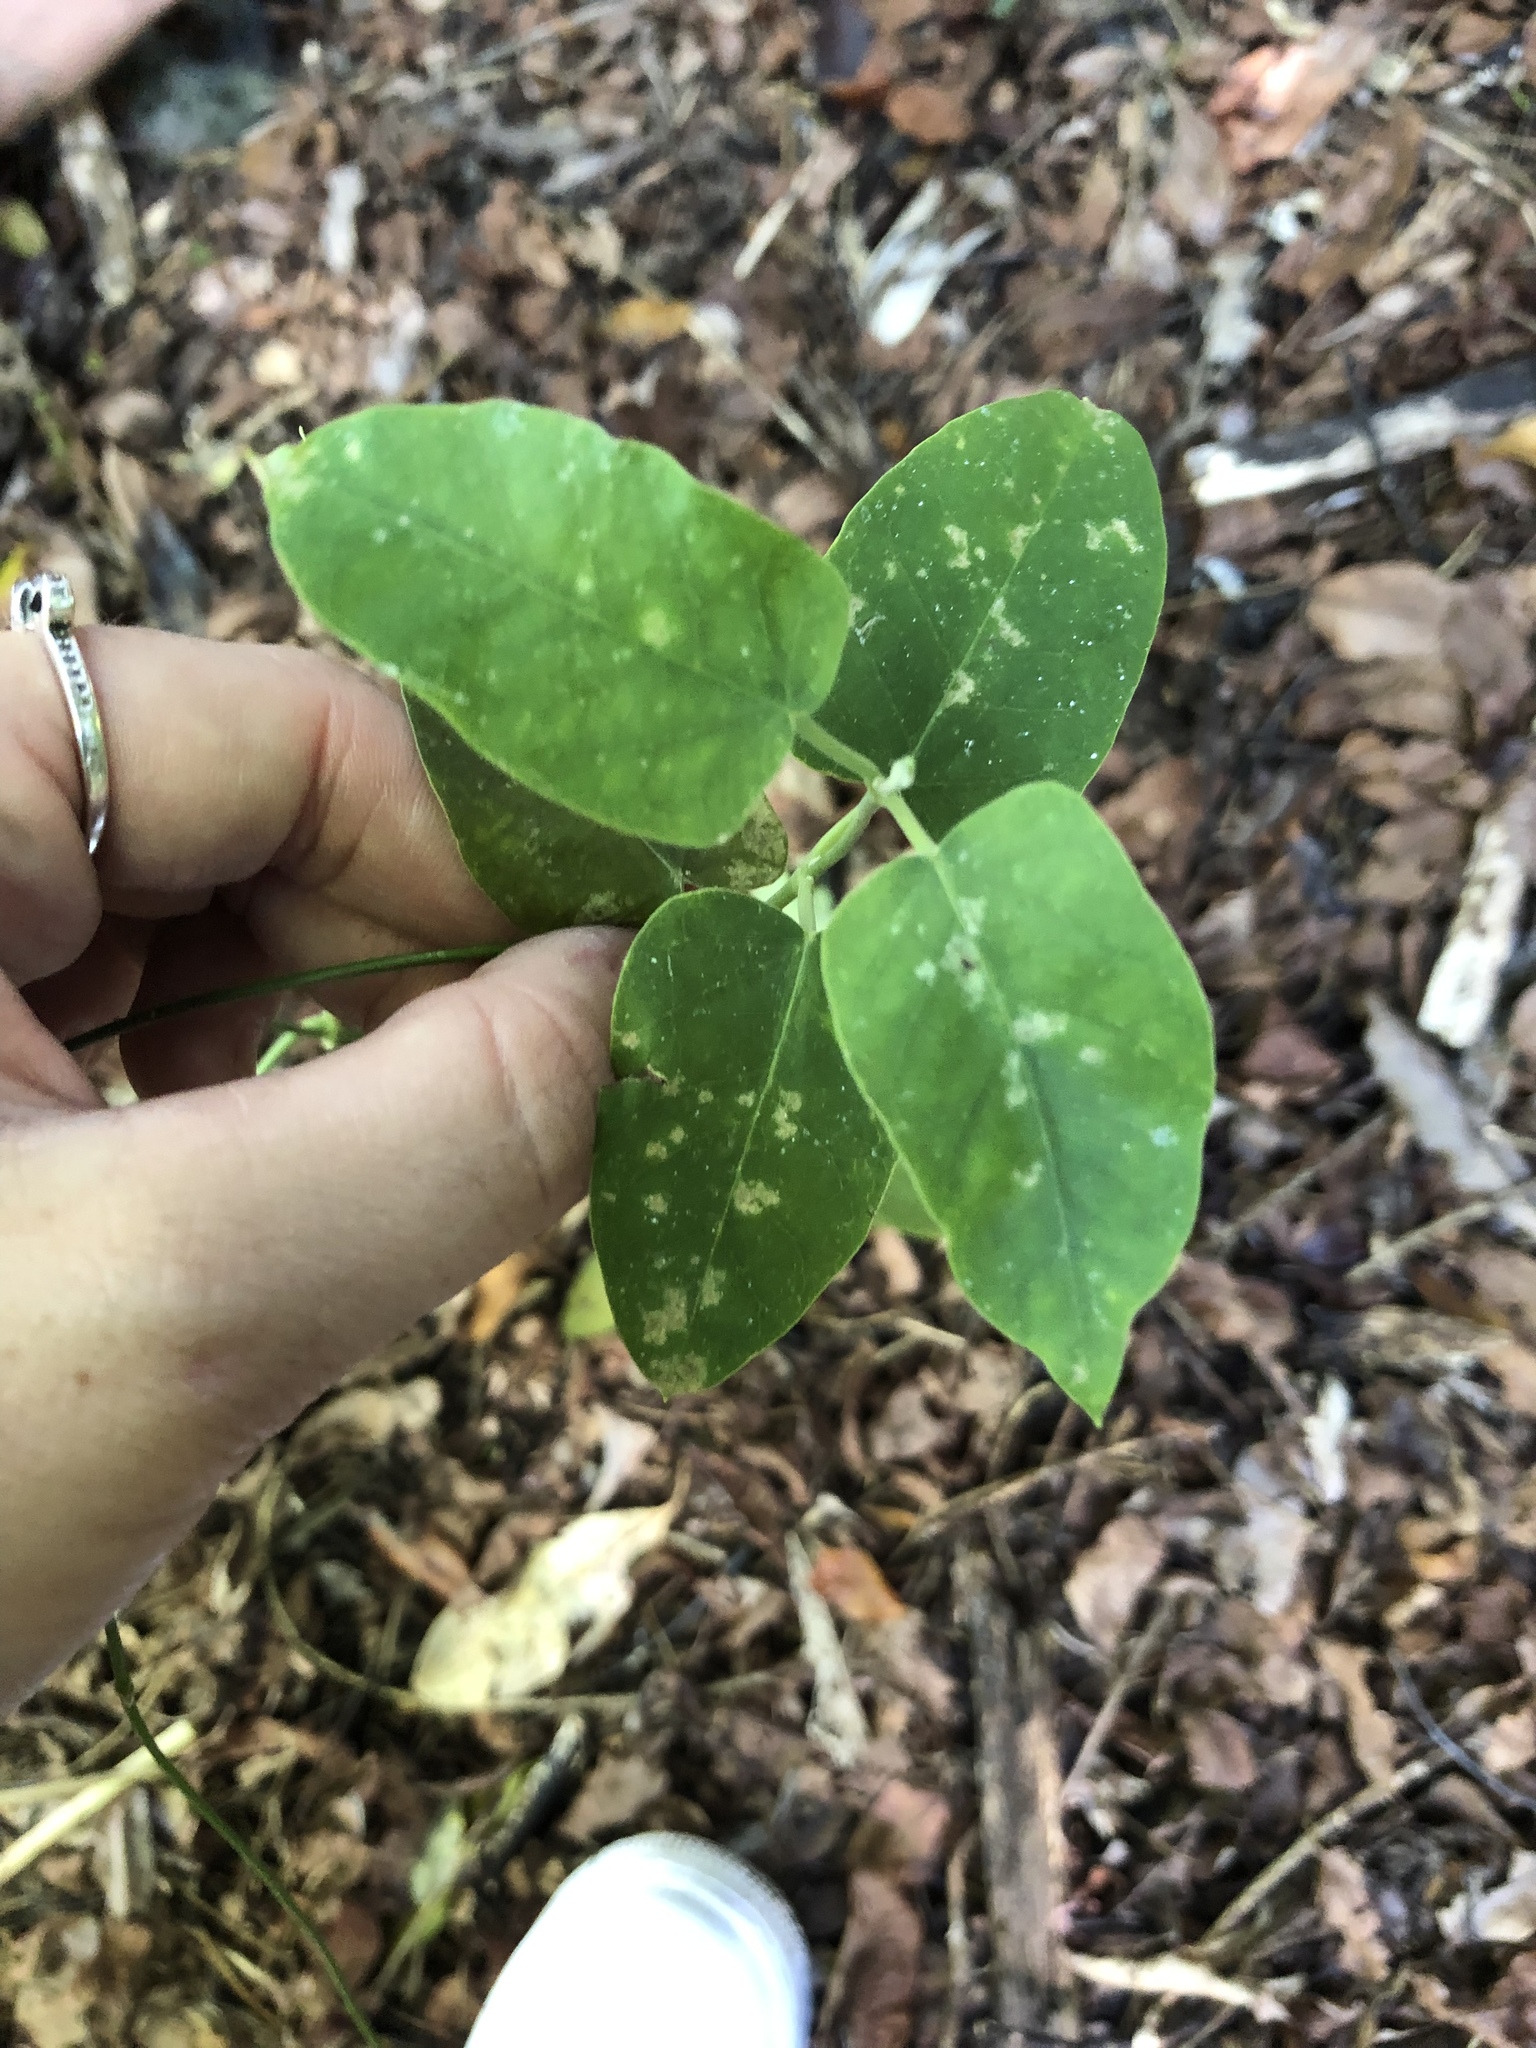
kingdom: Plantae
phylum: Tracheophyta
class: Magnoliopsida
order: Gentianales
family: Apocynaceae
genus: Araujia
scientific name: Araujia sericifera
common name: White bladderflower
